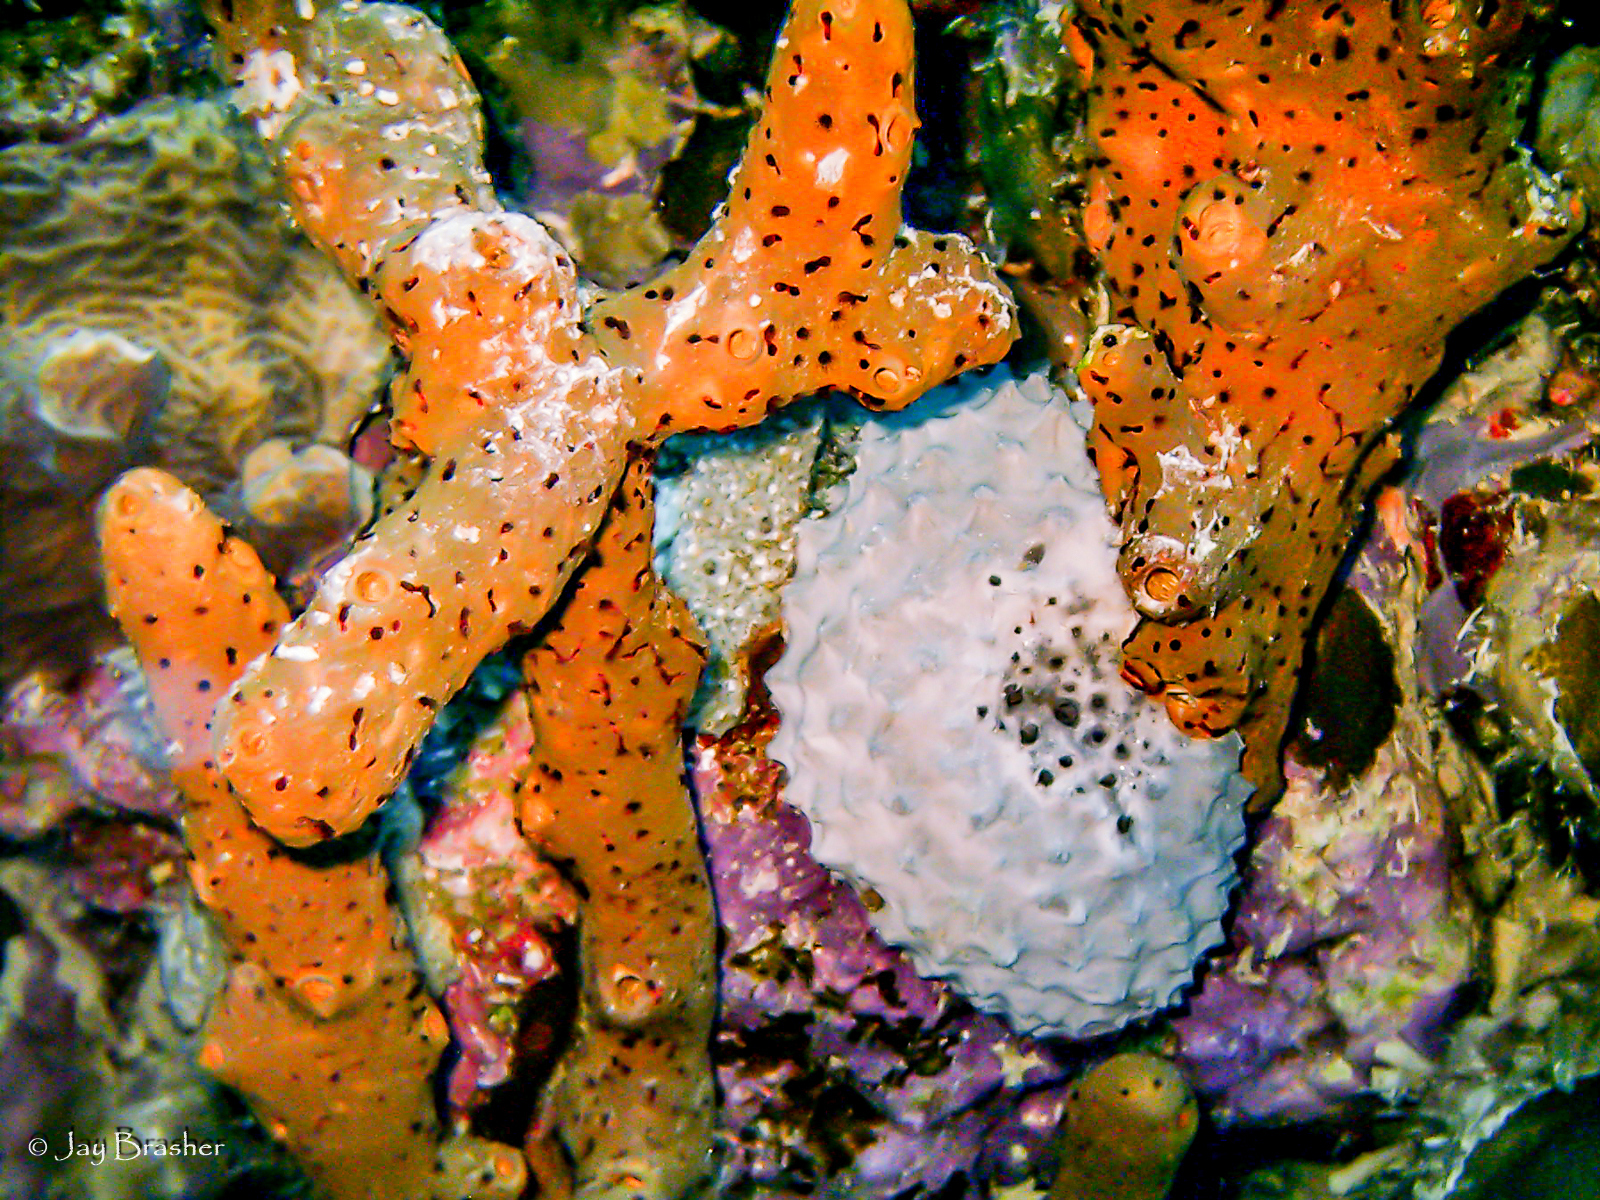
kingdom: Animalia
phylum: Cnidaria
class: Anthozoa
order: Zoantharia
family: Parazoanthidae
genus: Bergia
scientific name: Bergia puertoricense
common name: Maroon sponge zoanthid
